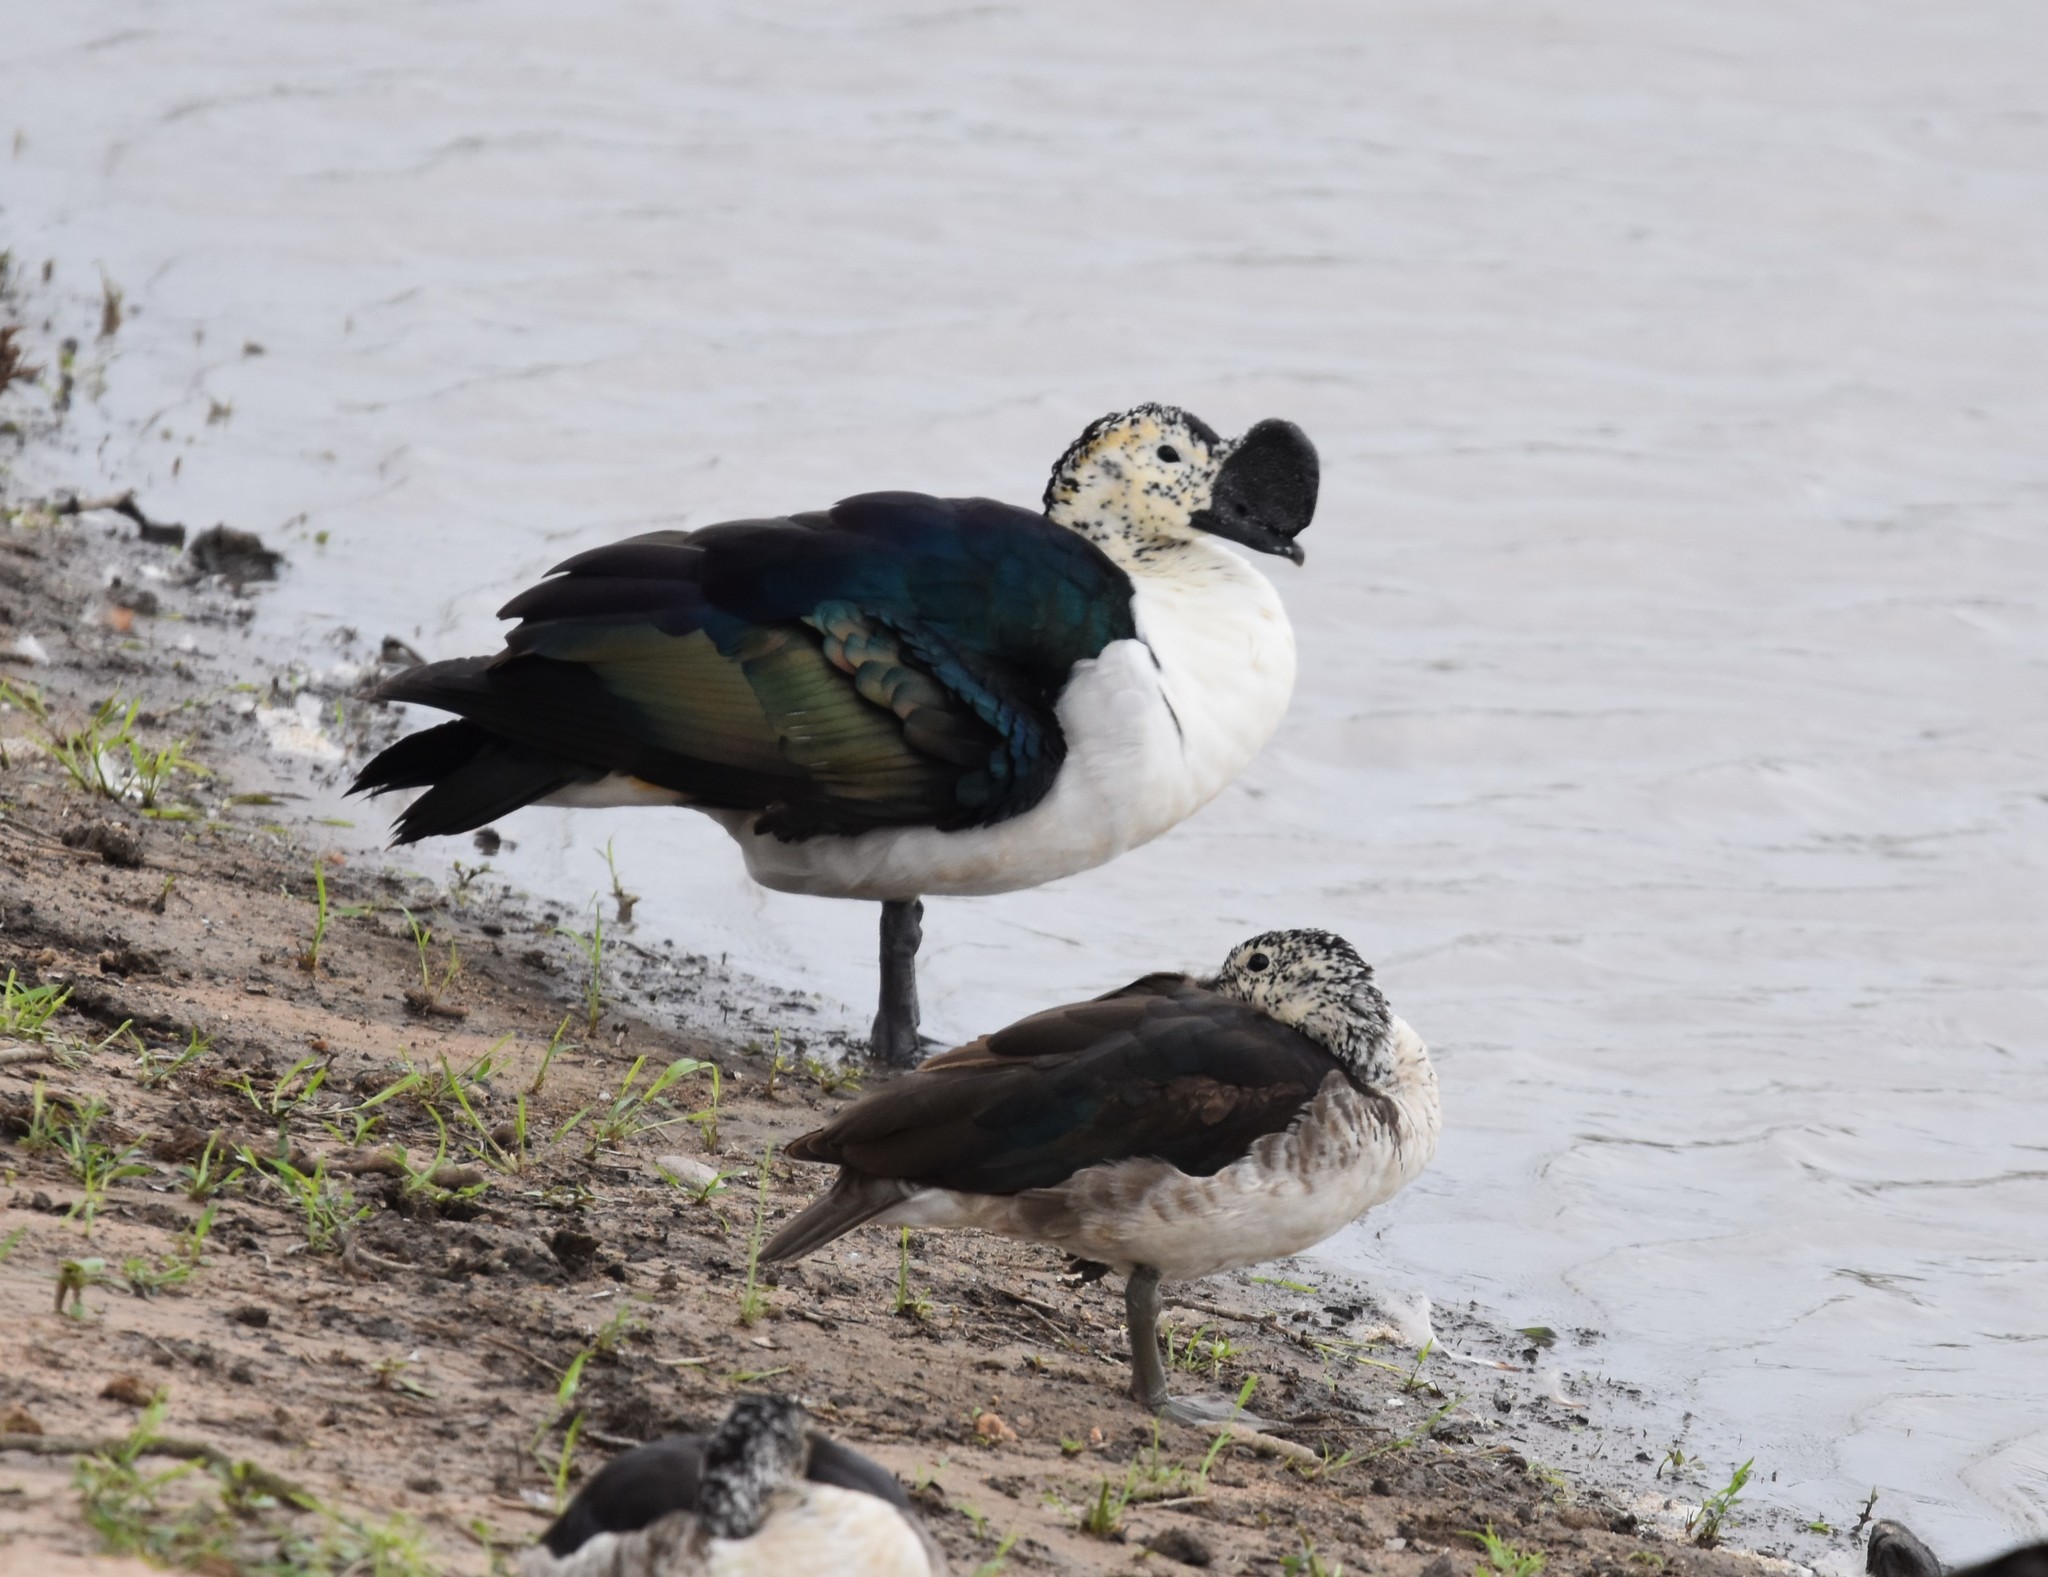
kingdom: Animalia
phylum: Chordata
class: Aves
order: Anseriformes
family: Anatidae
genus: Sarkidiornis
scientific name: Sarkidiornis melanotos
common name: Comb duck
